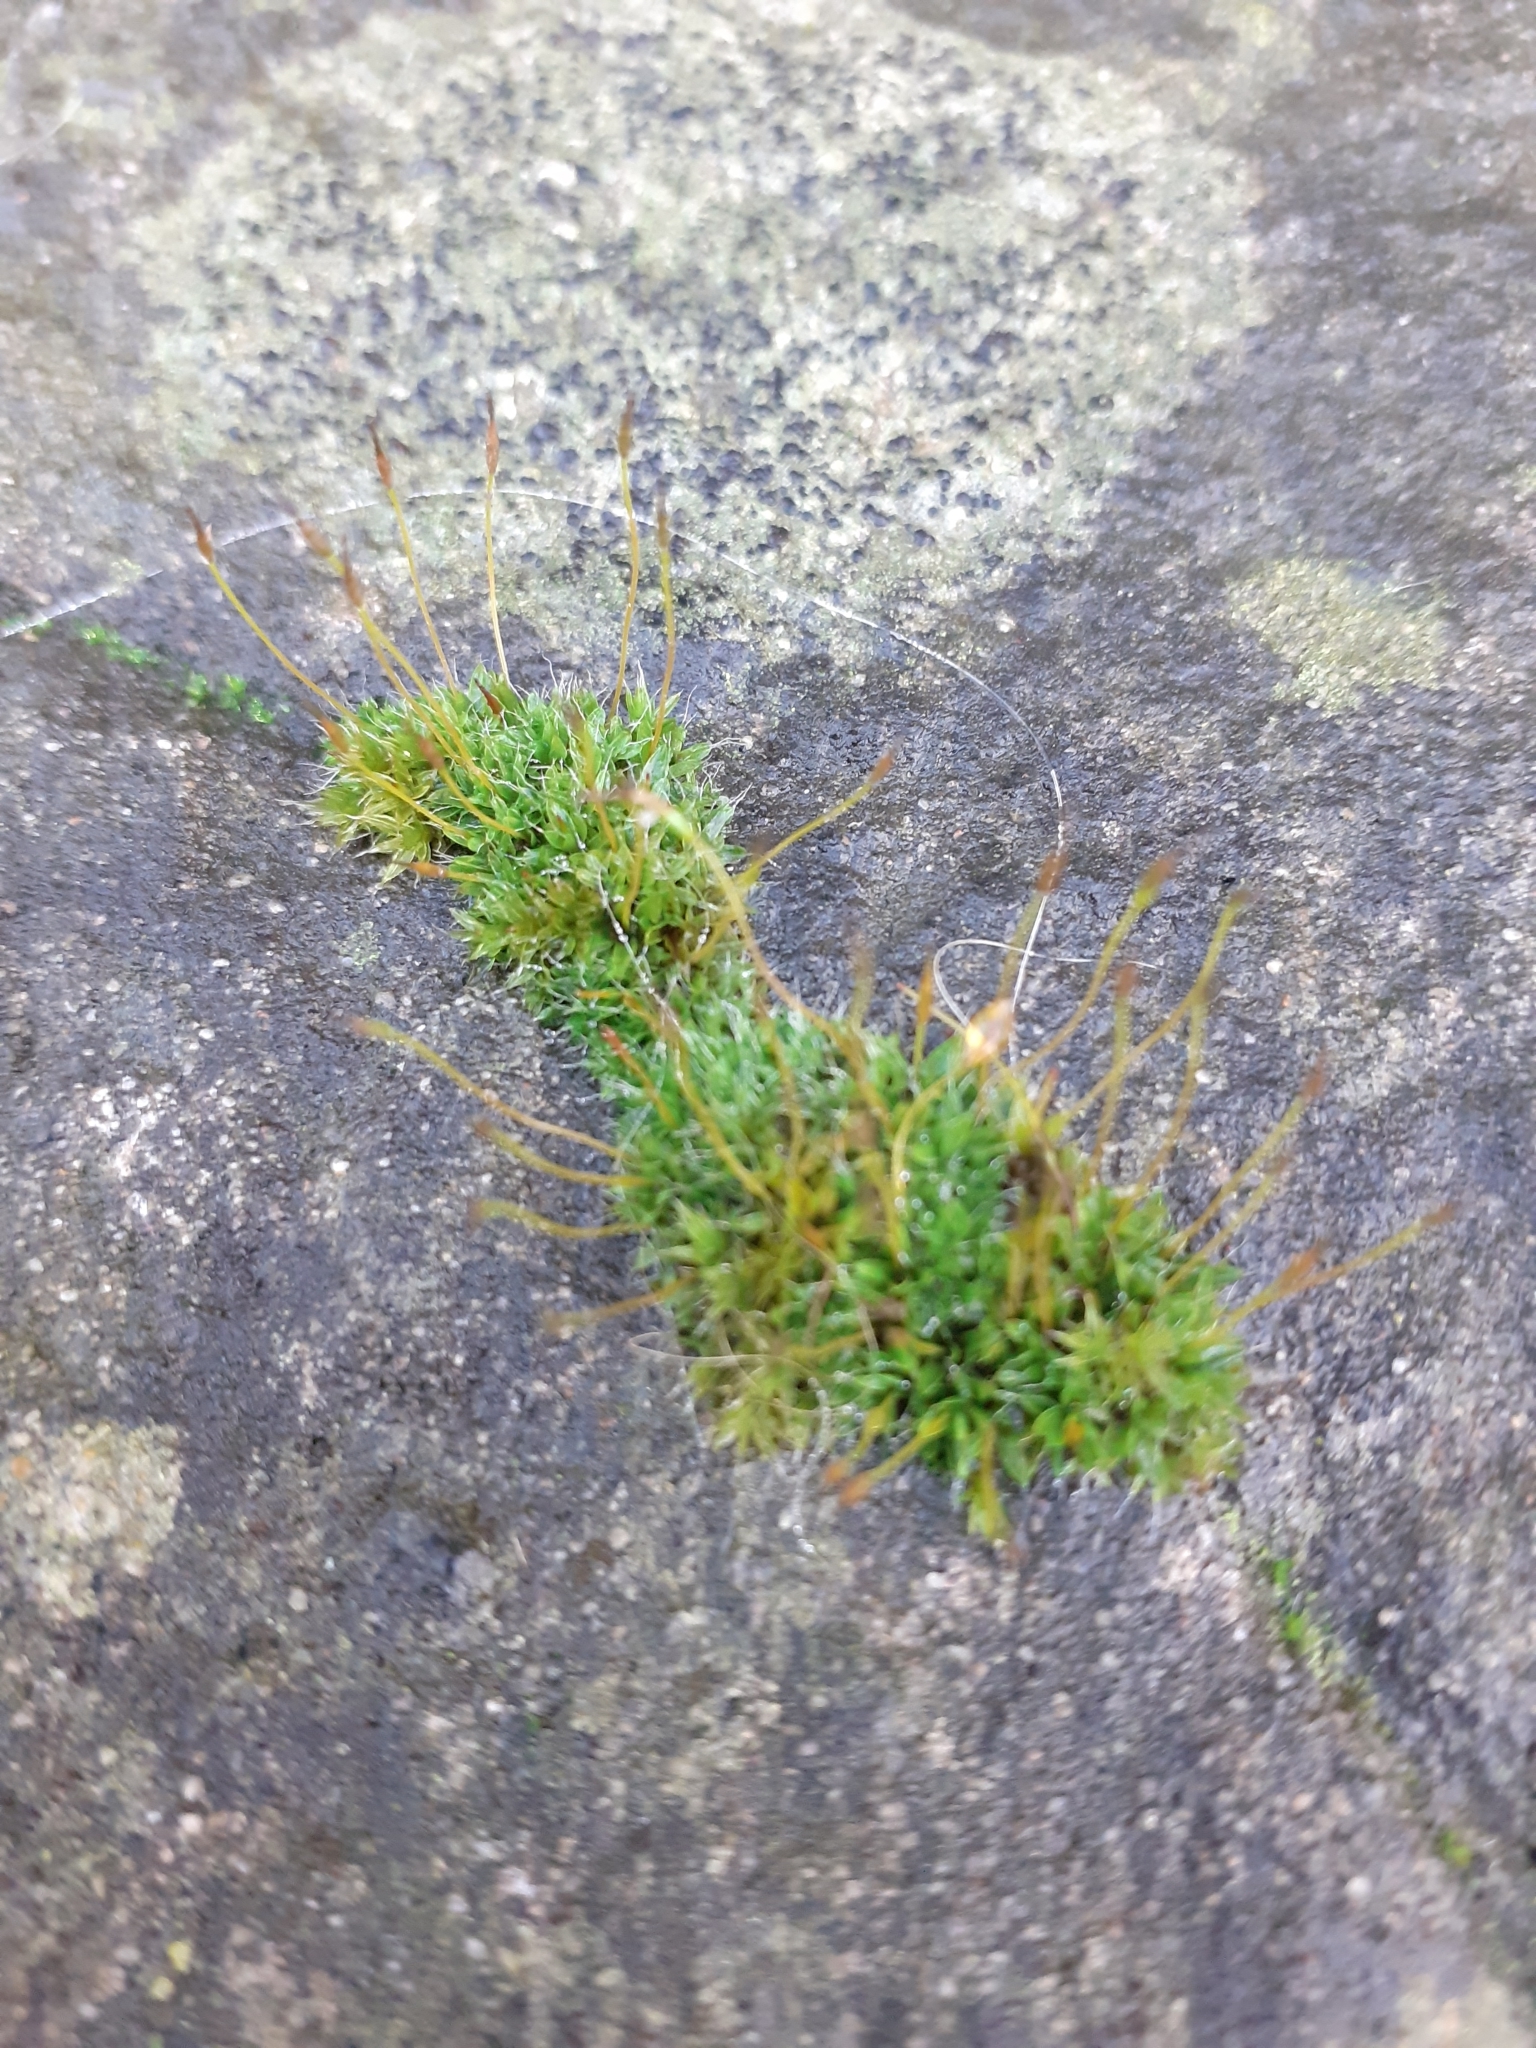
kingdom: Plantae
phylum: Bryophyta
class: Bryopsida
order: Pottiales
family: Pottiaceae
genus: Tortula
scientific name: Tortula muralis
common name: Wall screw-moss
